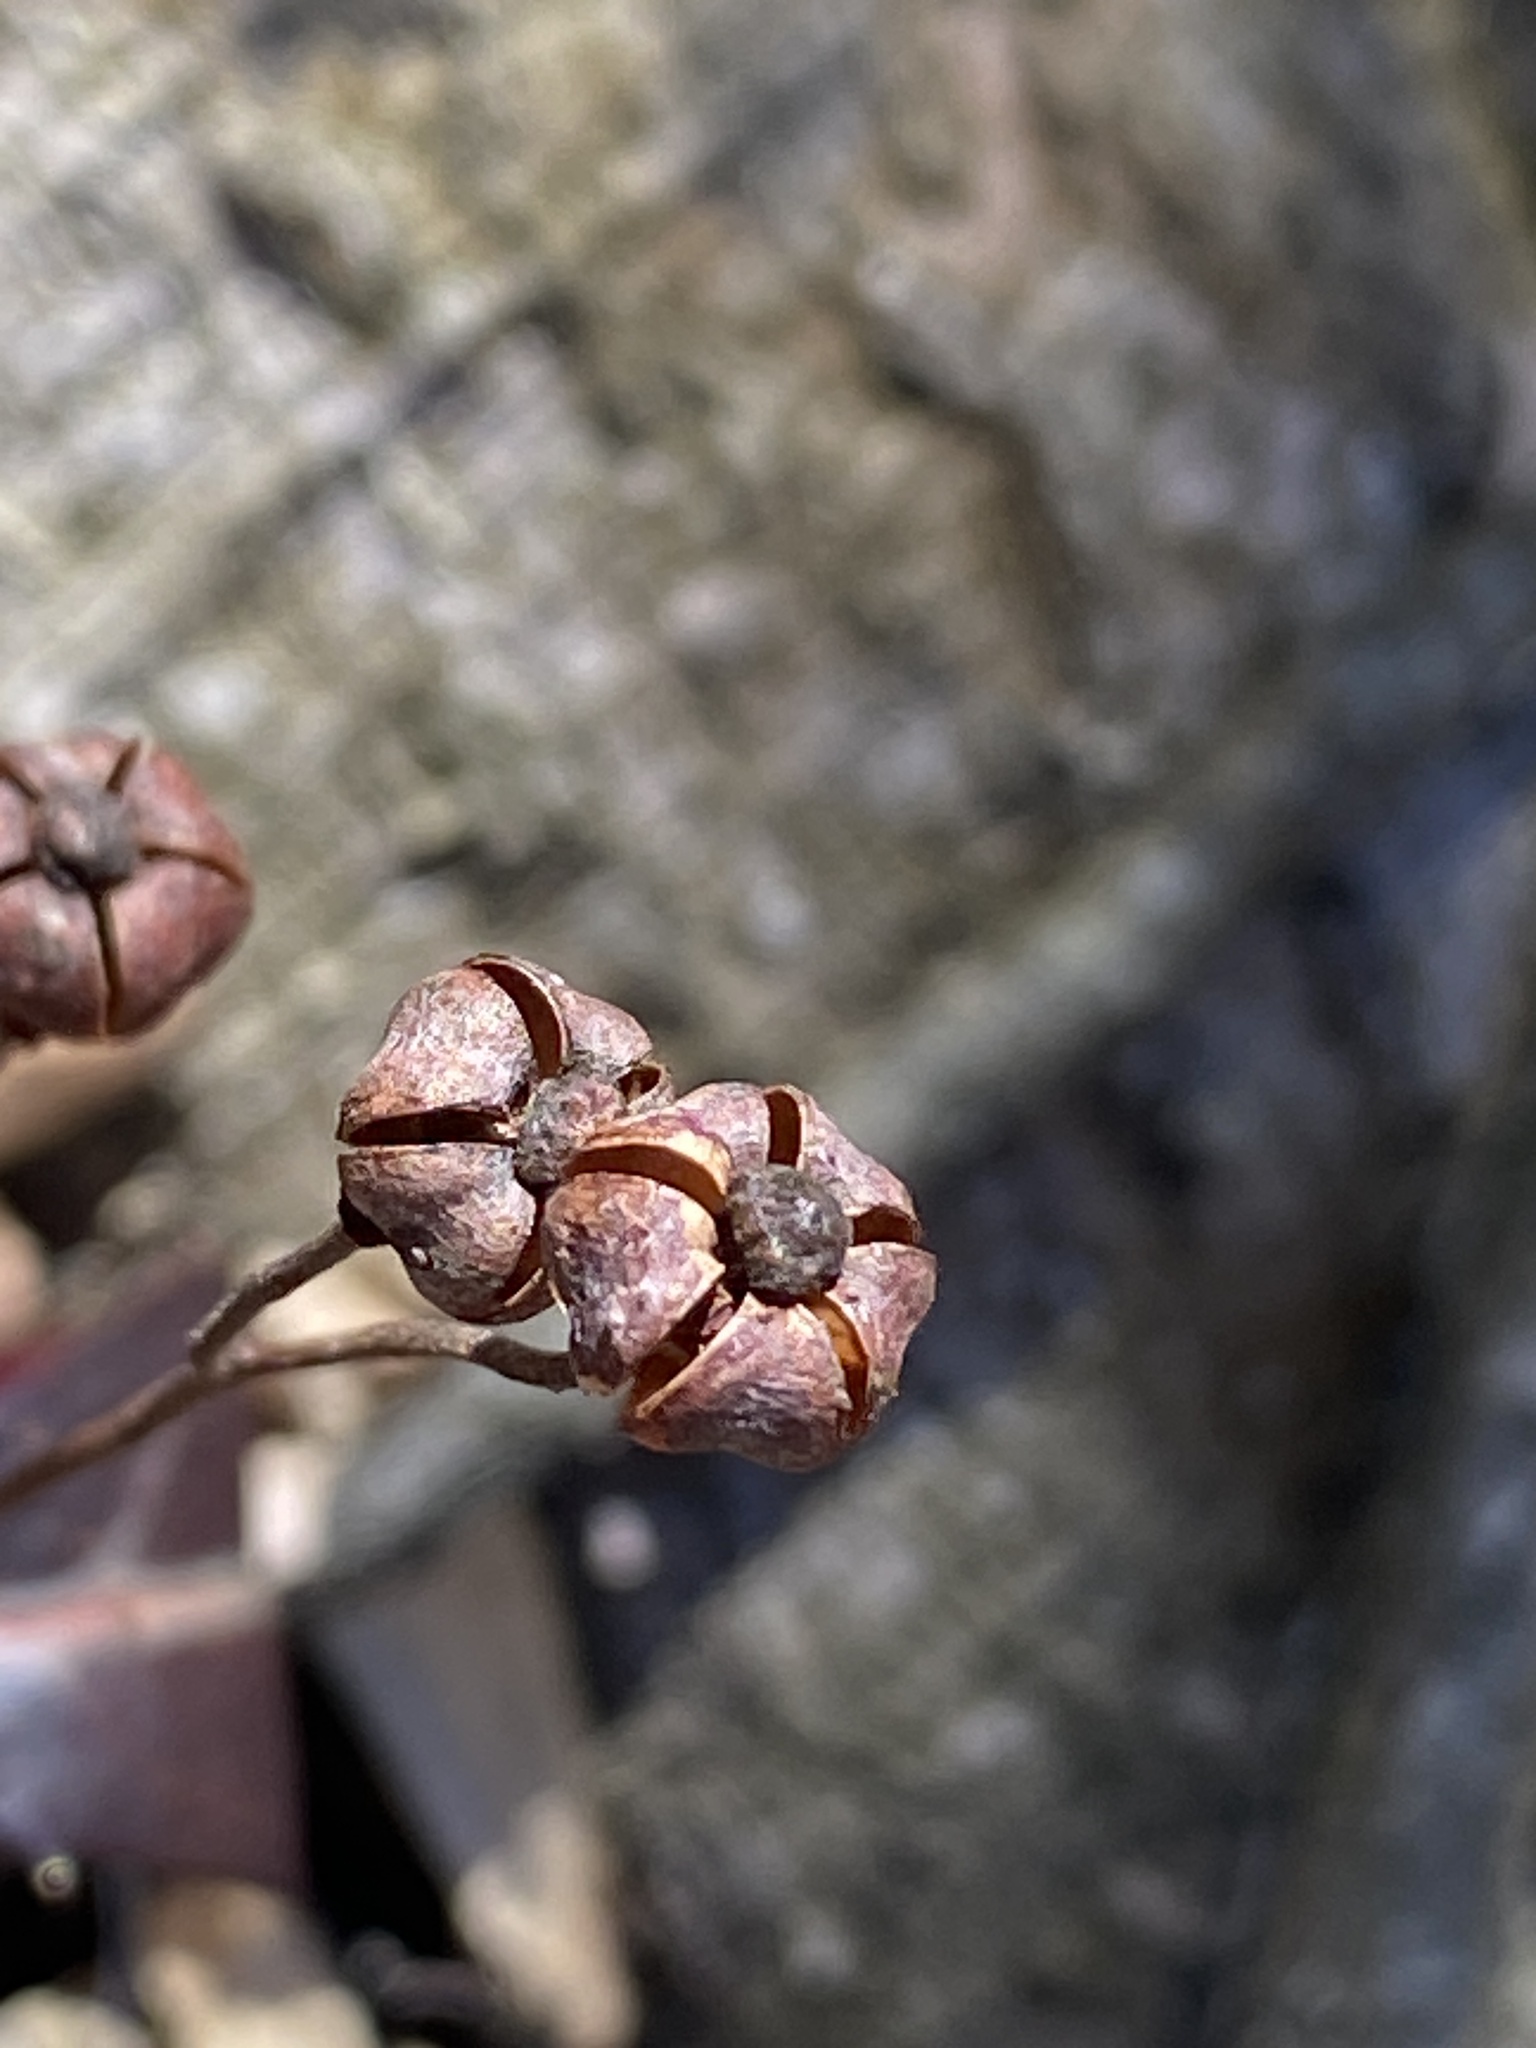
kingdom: Plantae
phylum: Tracheophyta
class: Magnoliopsida
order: Ericales
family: Ericaceae
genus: Chimaphila
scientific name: Chimaphila maculata
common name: Spotted pipsissewa
